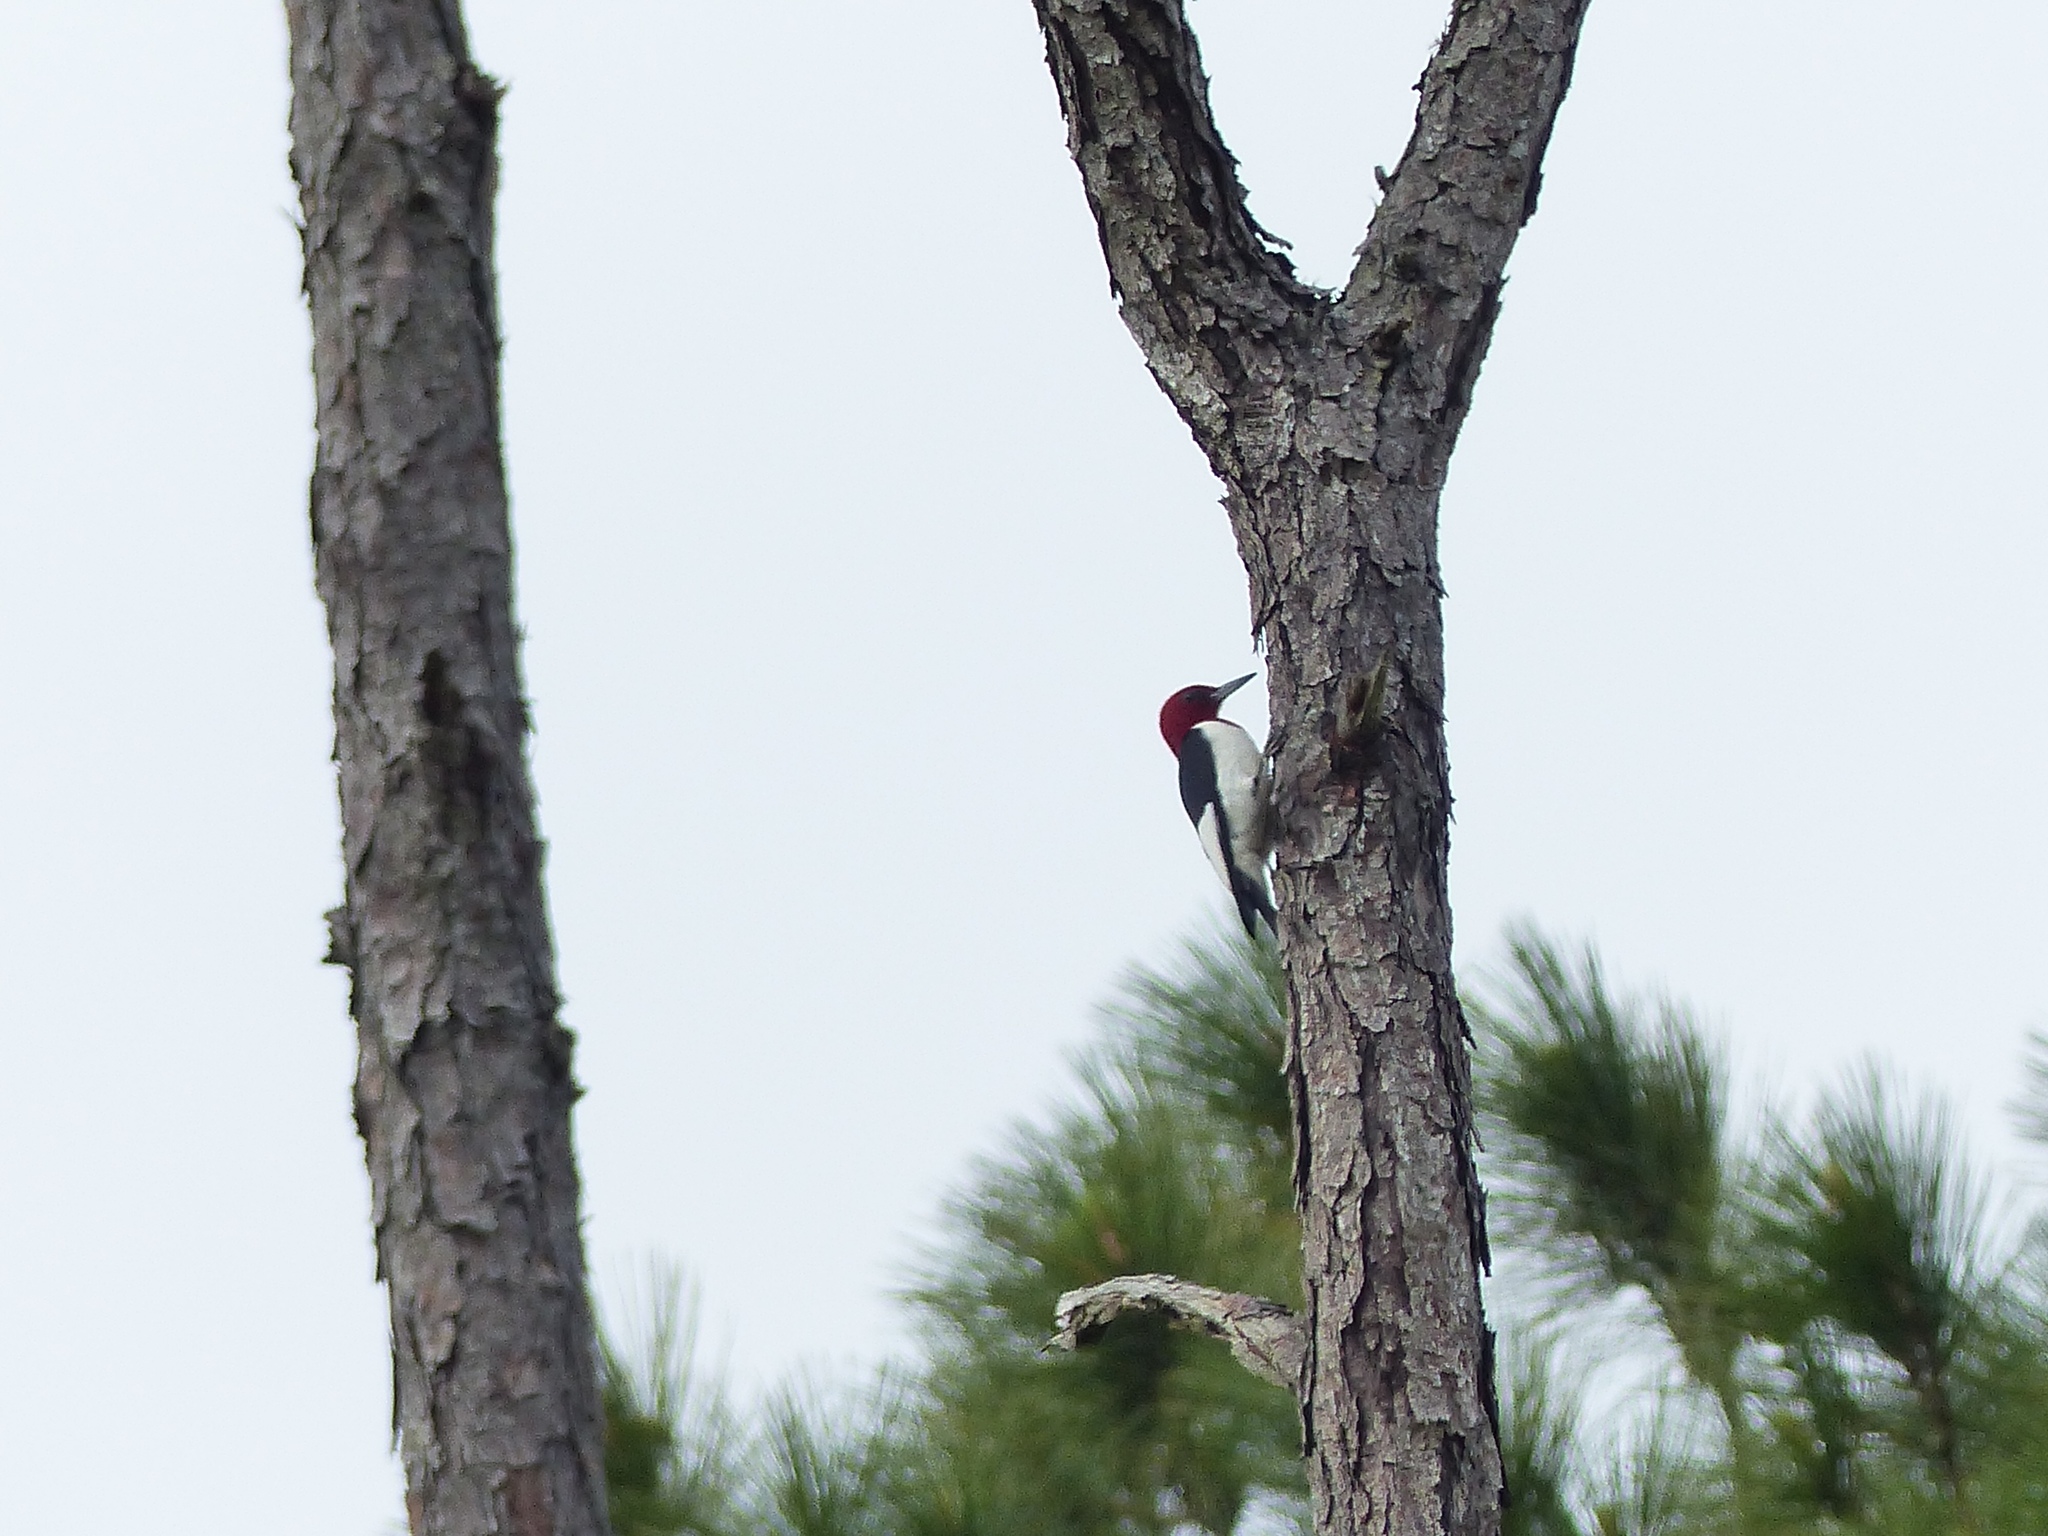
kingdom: Animalia
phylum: Chordata
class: Aves
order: Piciformes
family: Picidae
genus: Melanerpes
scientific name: Melanerpes erythrocephalus
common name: Red-headed woodpecker
